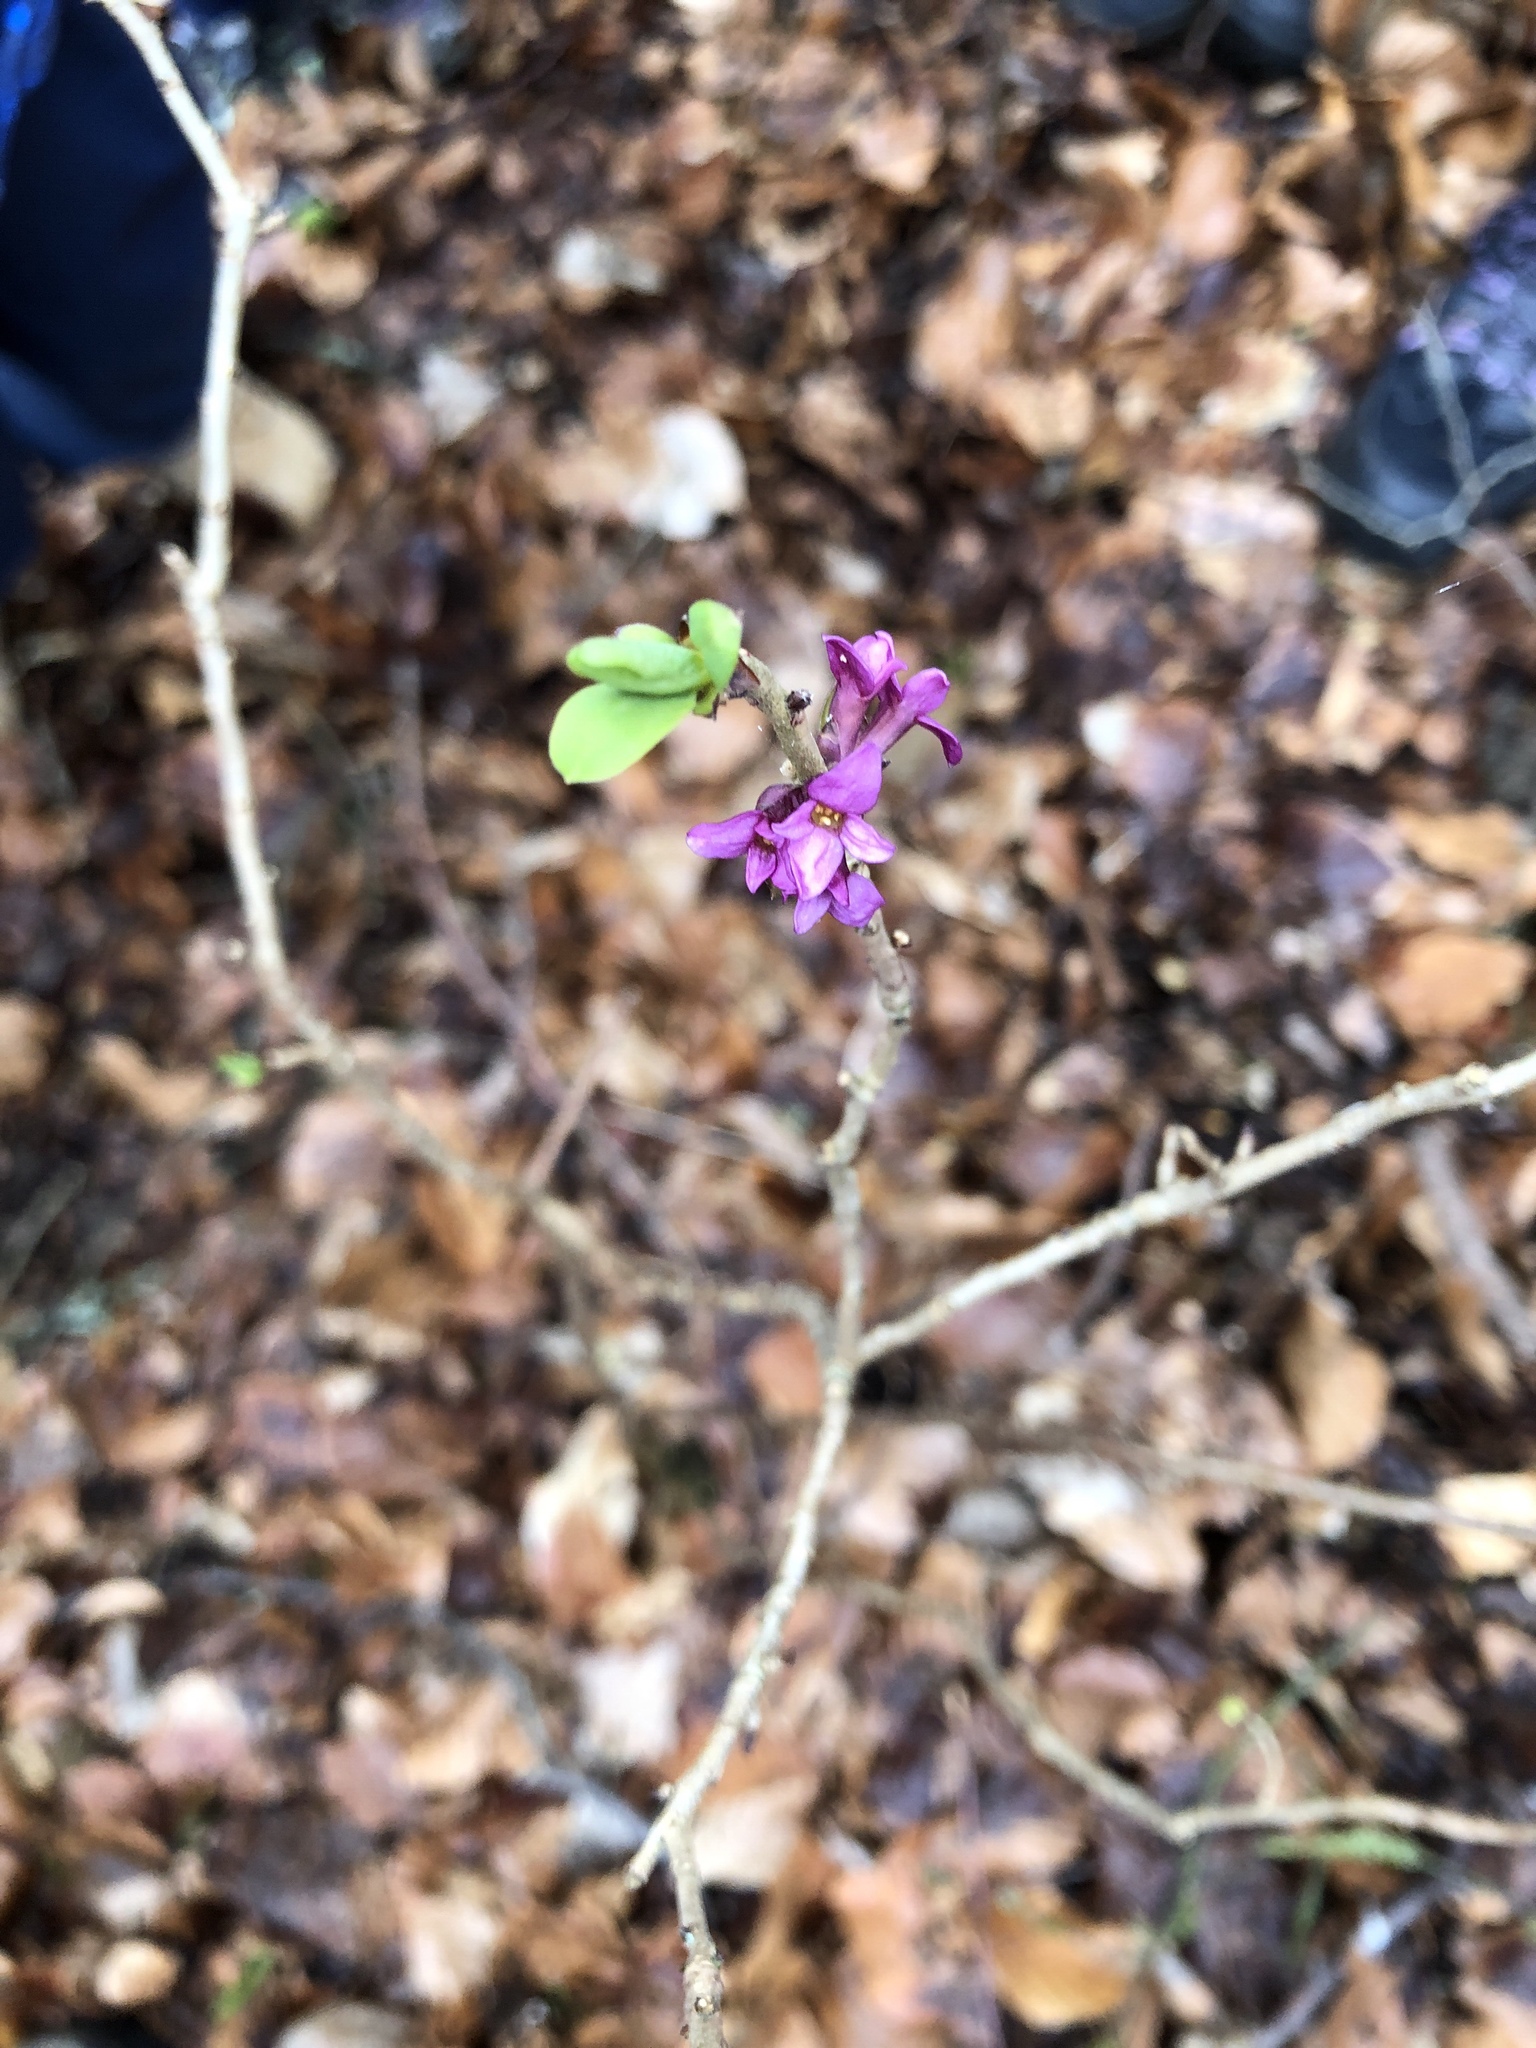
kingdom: Plantae
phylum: Tracheophyta
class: Magnoliopsida
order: Malvales
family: Thymelaeaceae
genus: Daphne
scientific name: Daphne mezereum
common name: Mezereon
